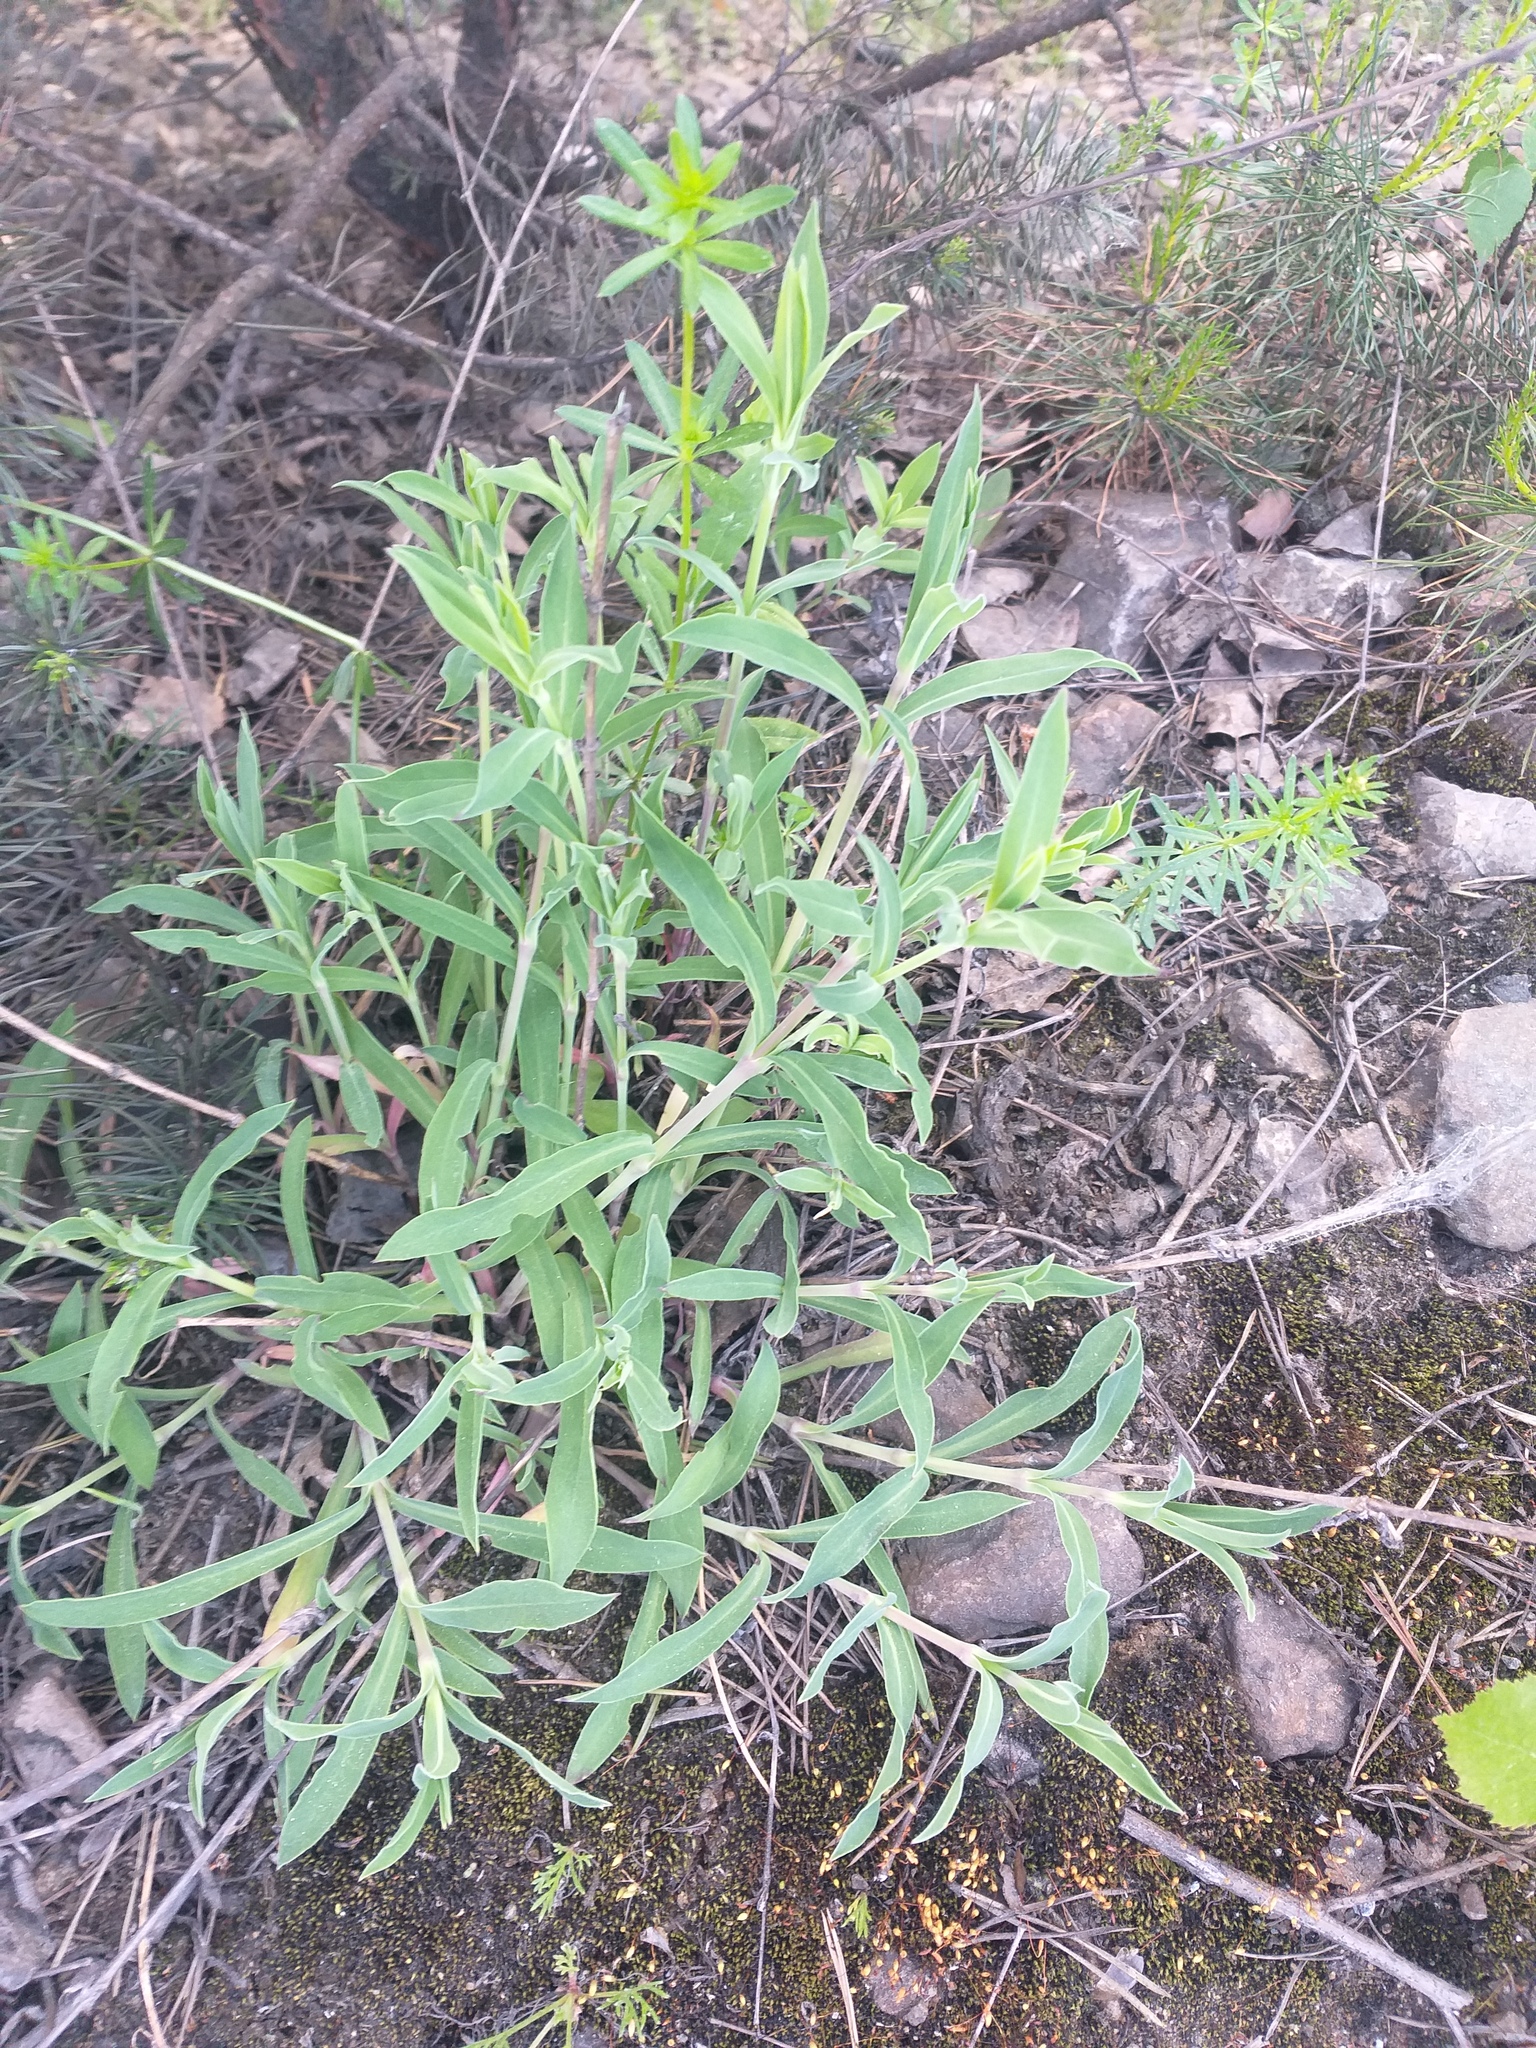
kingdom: Plantae
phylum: Tracheophyta
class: Magnoliopsida
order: Caryophyllales
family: Caryophyllaceae
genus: Silene
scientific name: Silene vulgaris
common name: Bladder campion
